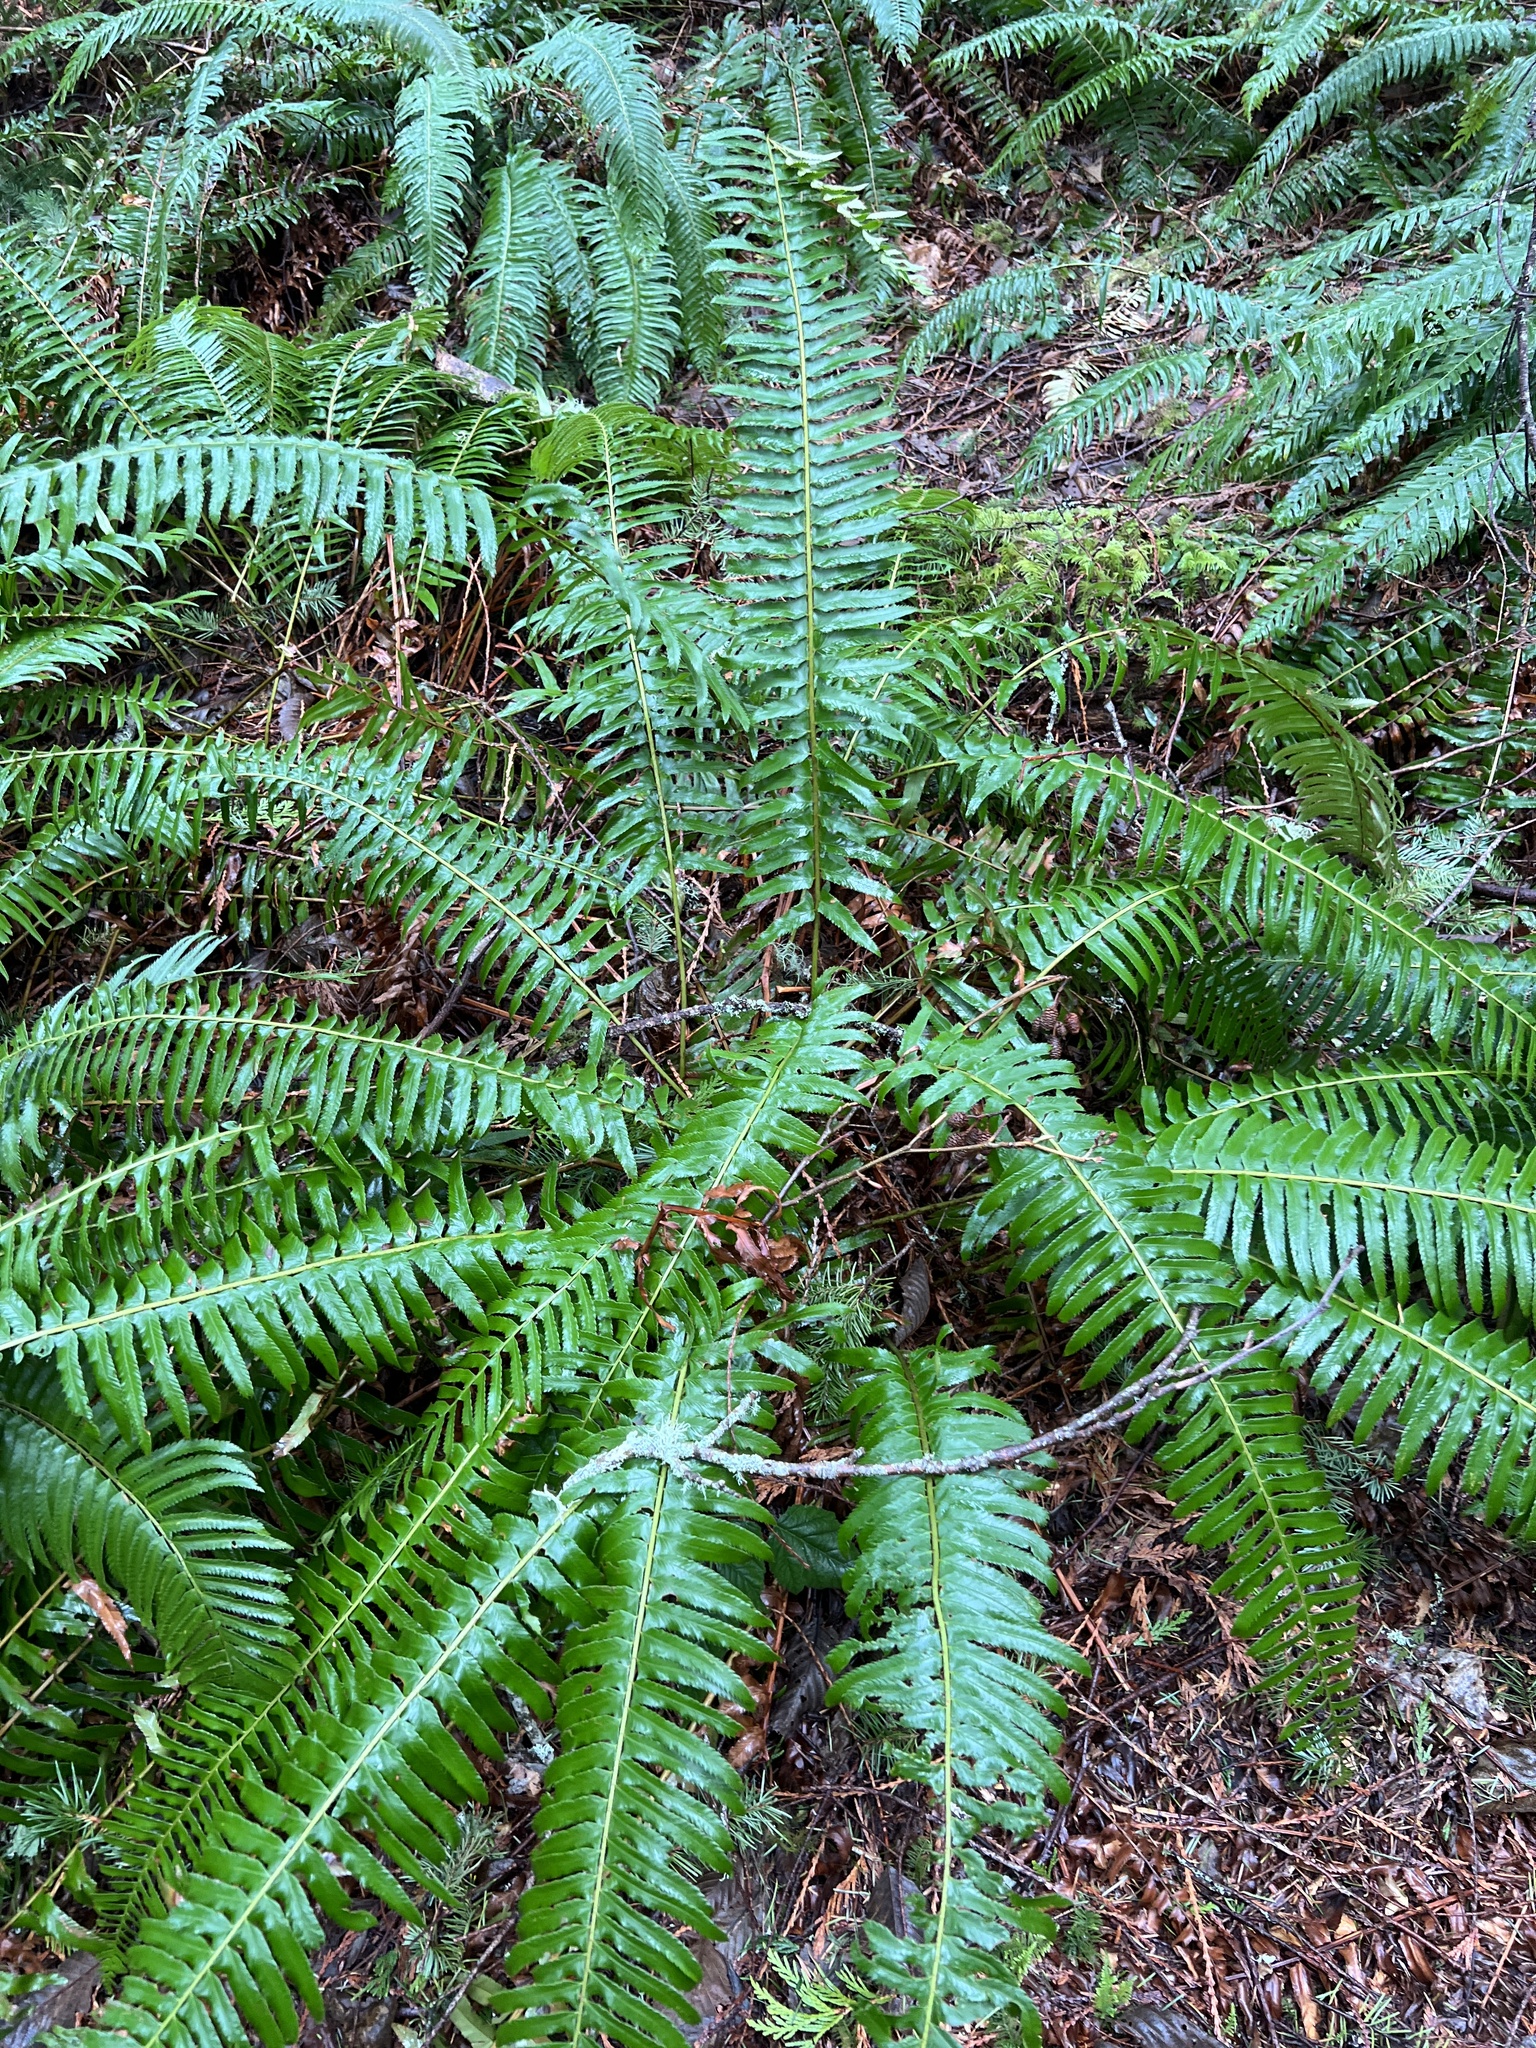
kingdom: Plantae
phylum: Tracheophyta
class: Polypodiopsida
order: Polypodiales
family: Dryopteridaceae
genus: Polystichum
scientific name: Polystichum munitum
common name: Western sword-fern
